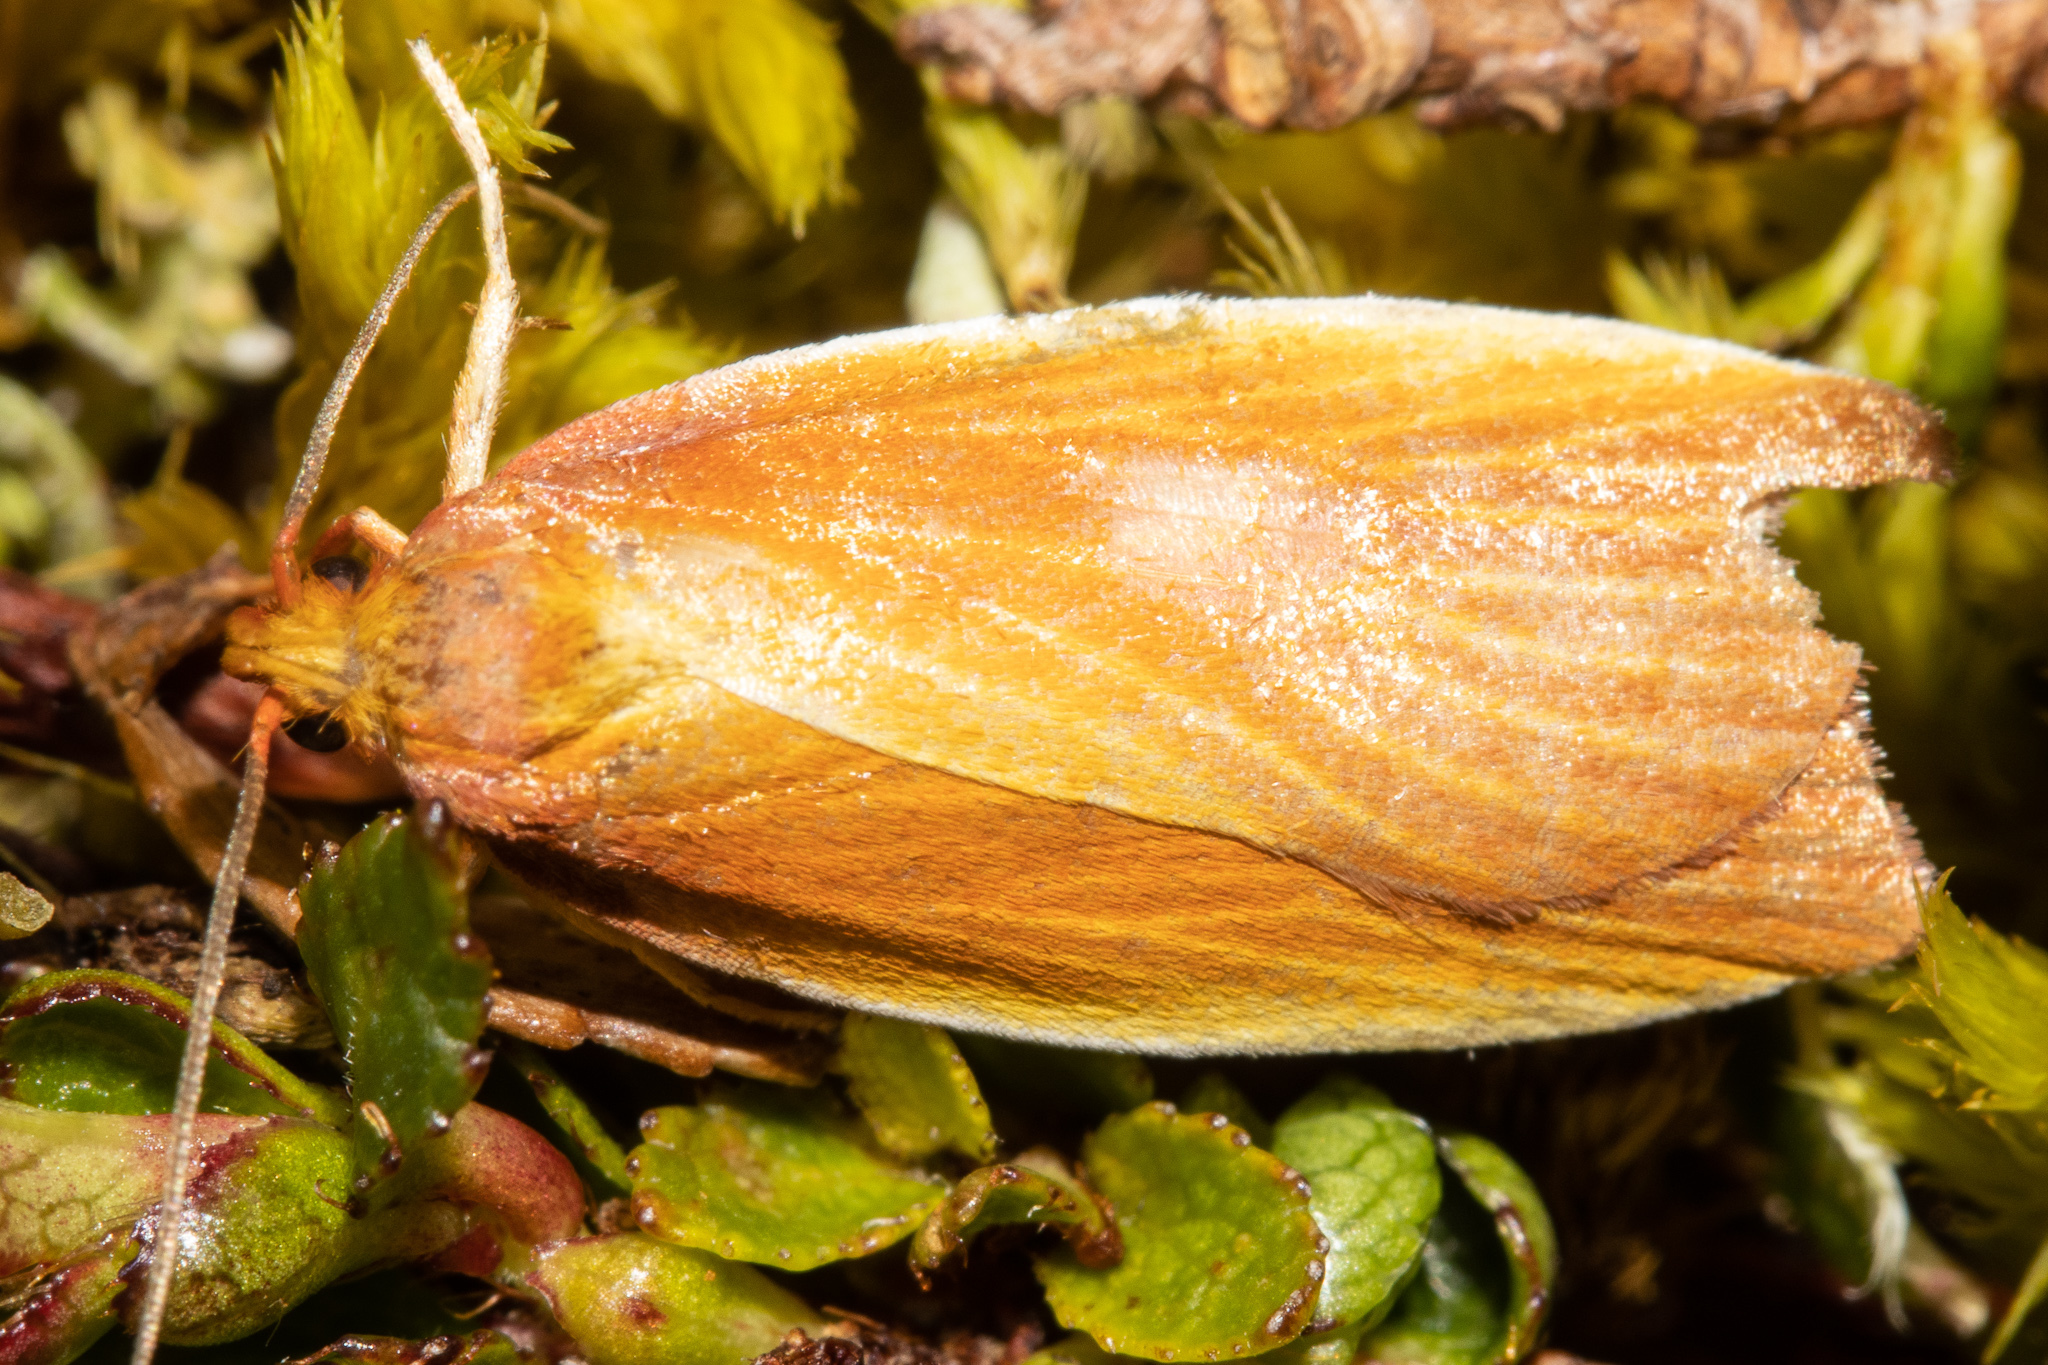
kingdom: Animalia
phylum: Arthropoda
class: Insecta
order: Lepidoptera
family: Oecophoridae
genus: Proteodes
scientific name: Proteodes smithi
